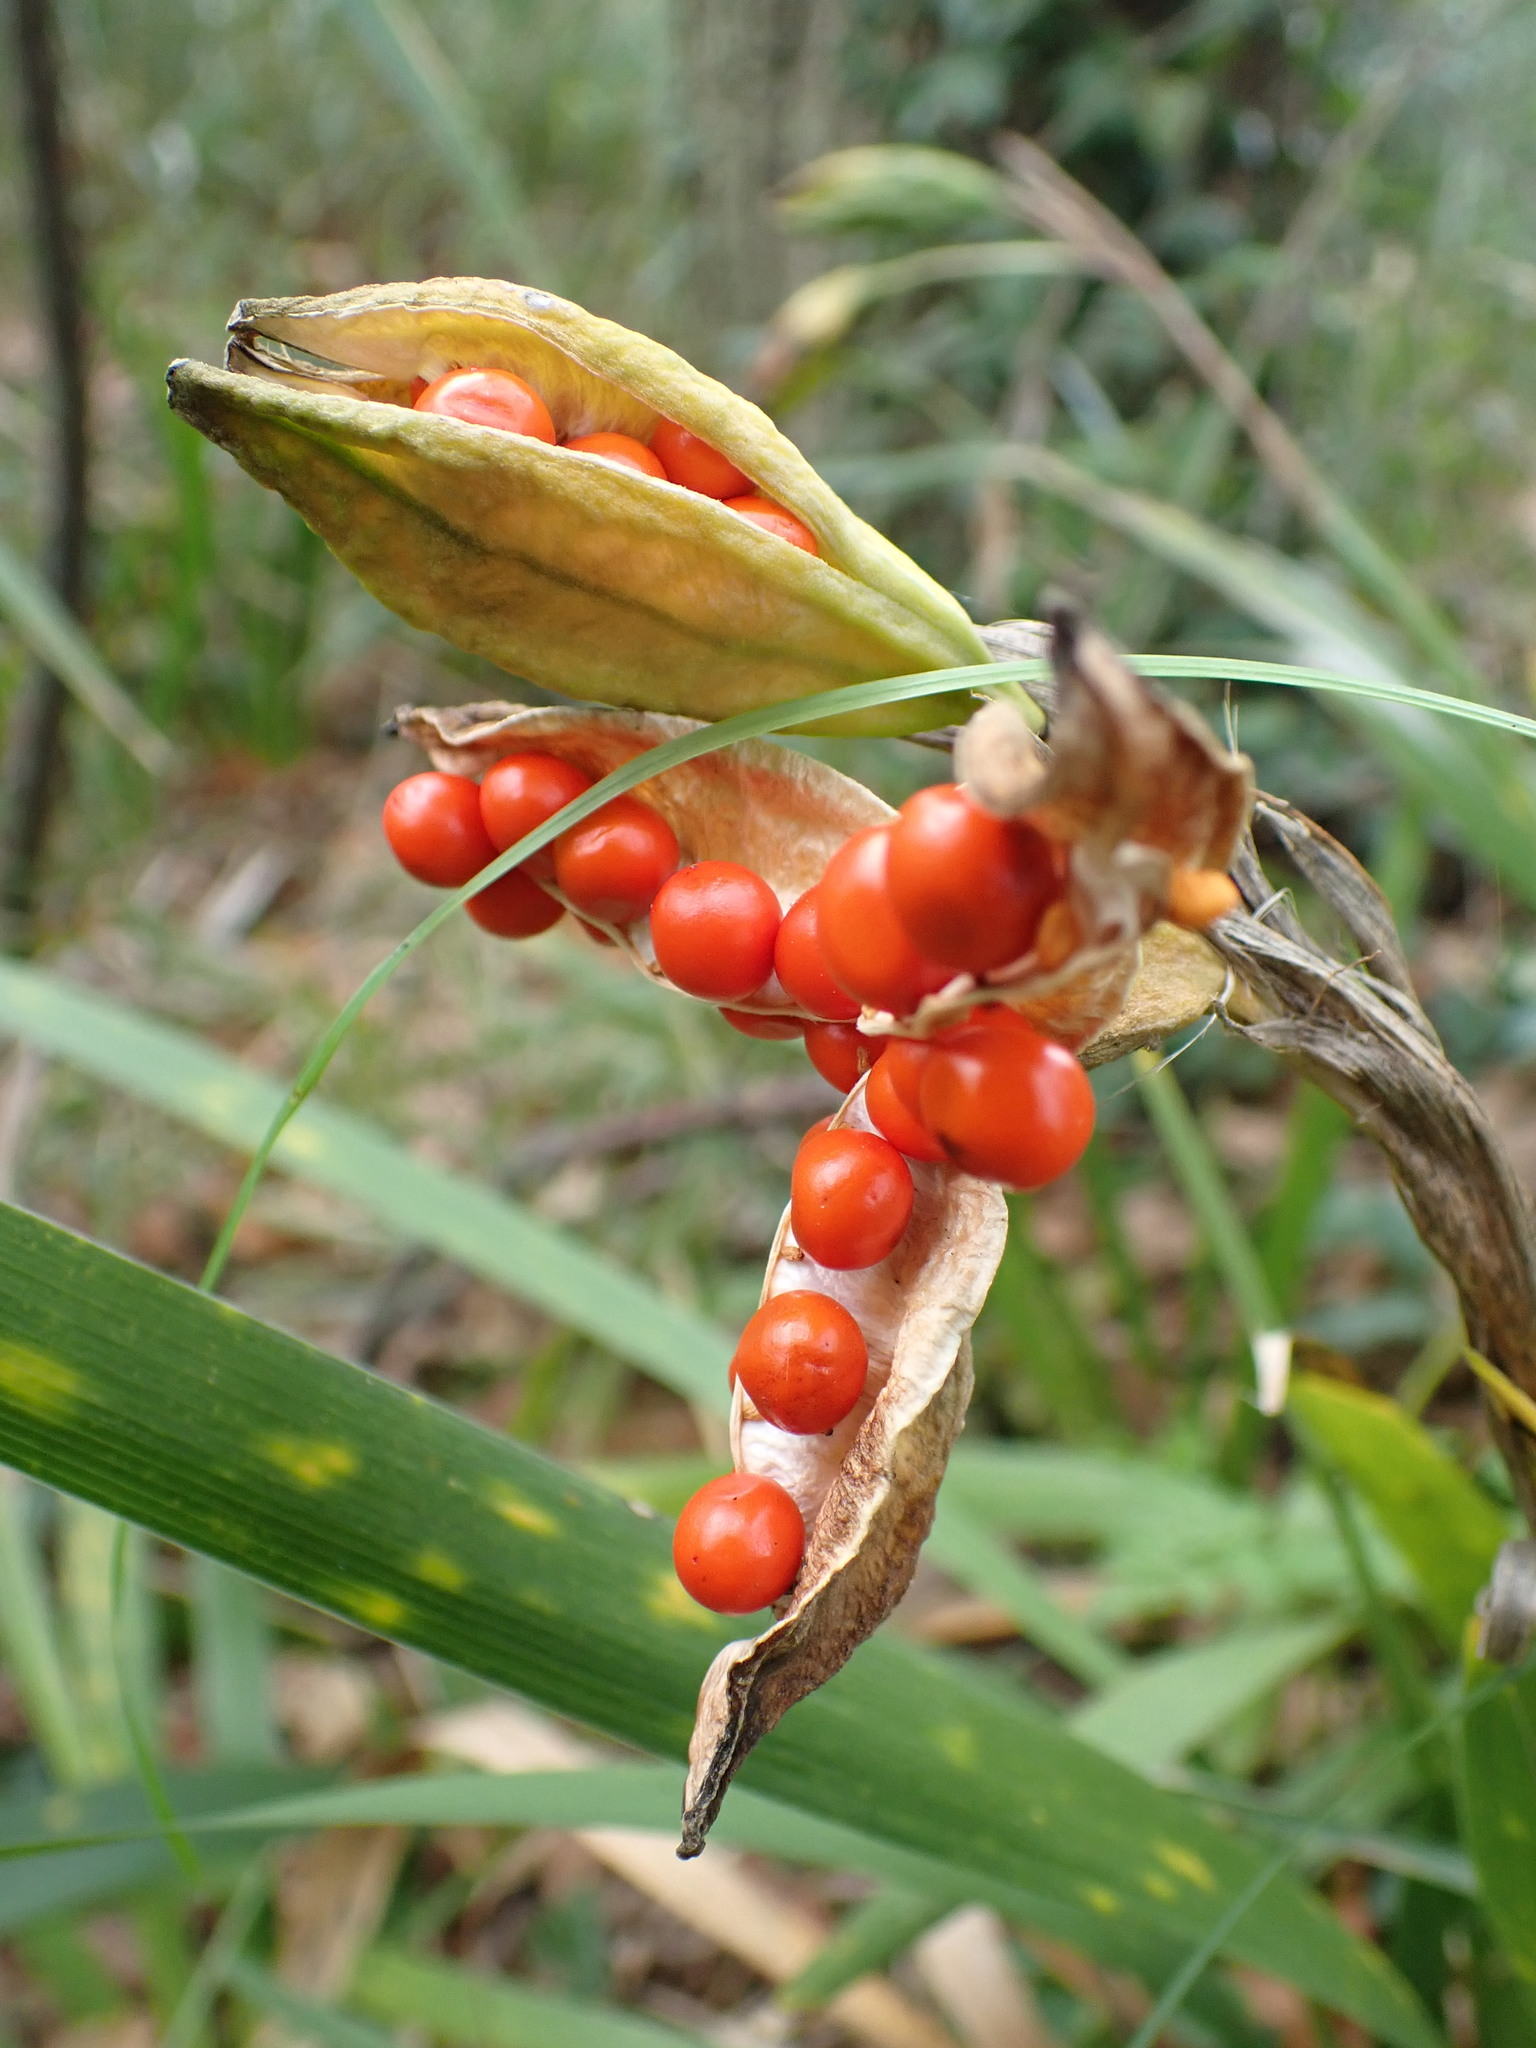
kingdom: Plantae
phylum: Tracheophyta
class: Liliopsida
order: Asparagales
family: Iridaceae
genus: Iris
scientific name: Iris foetidissima
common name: Stinking iris
